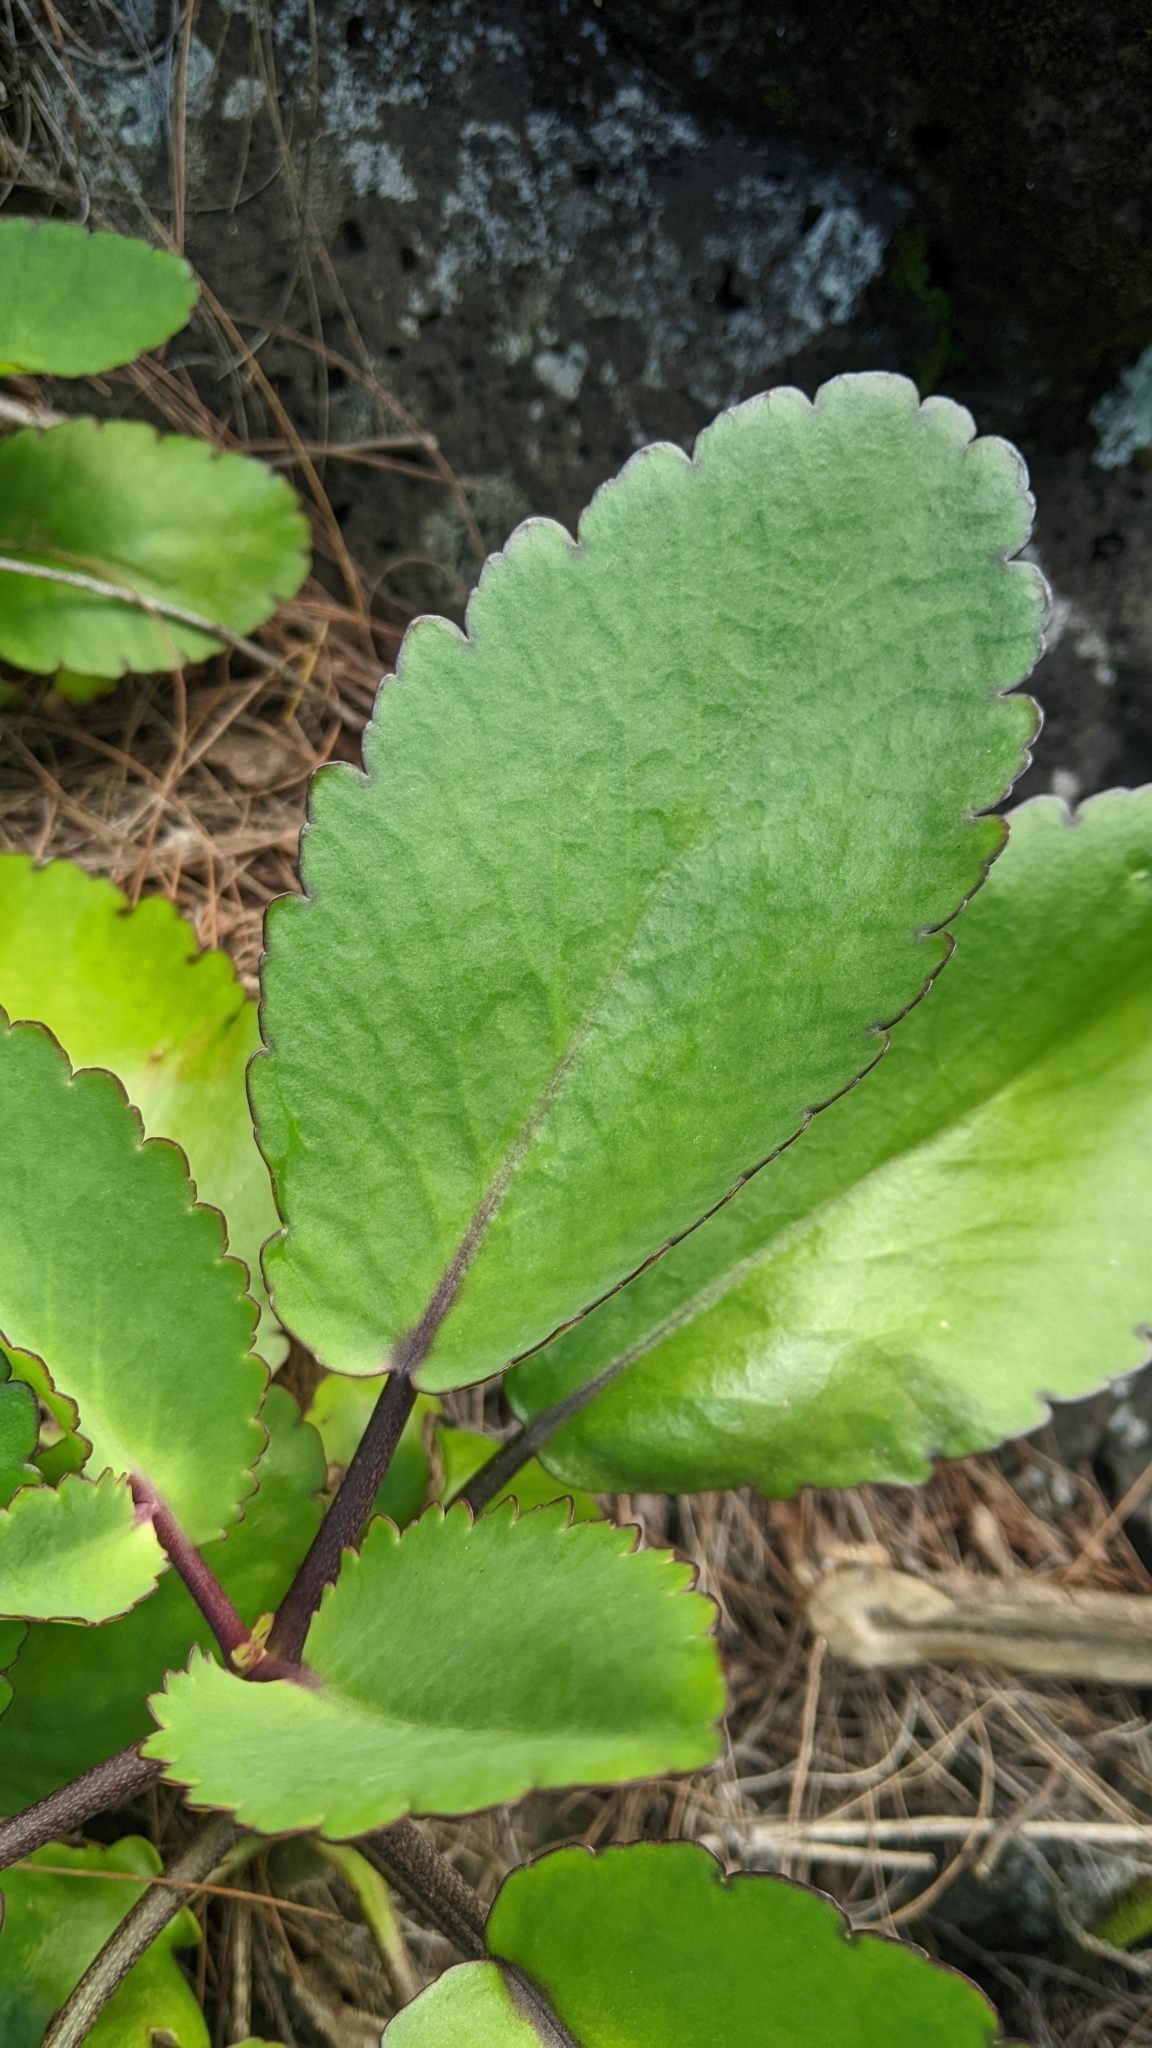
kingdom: Plantae
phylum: Tracheophyta
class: Magnoliopsida
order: Saxifragales
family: Crassulaceae
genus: Kalanchoe
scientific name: Kalanchoe pinnata
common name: Cathedral bells
